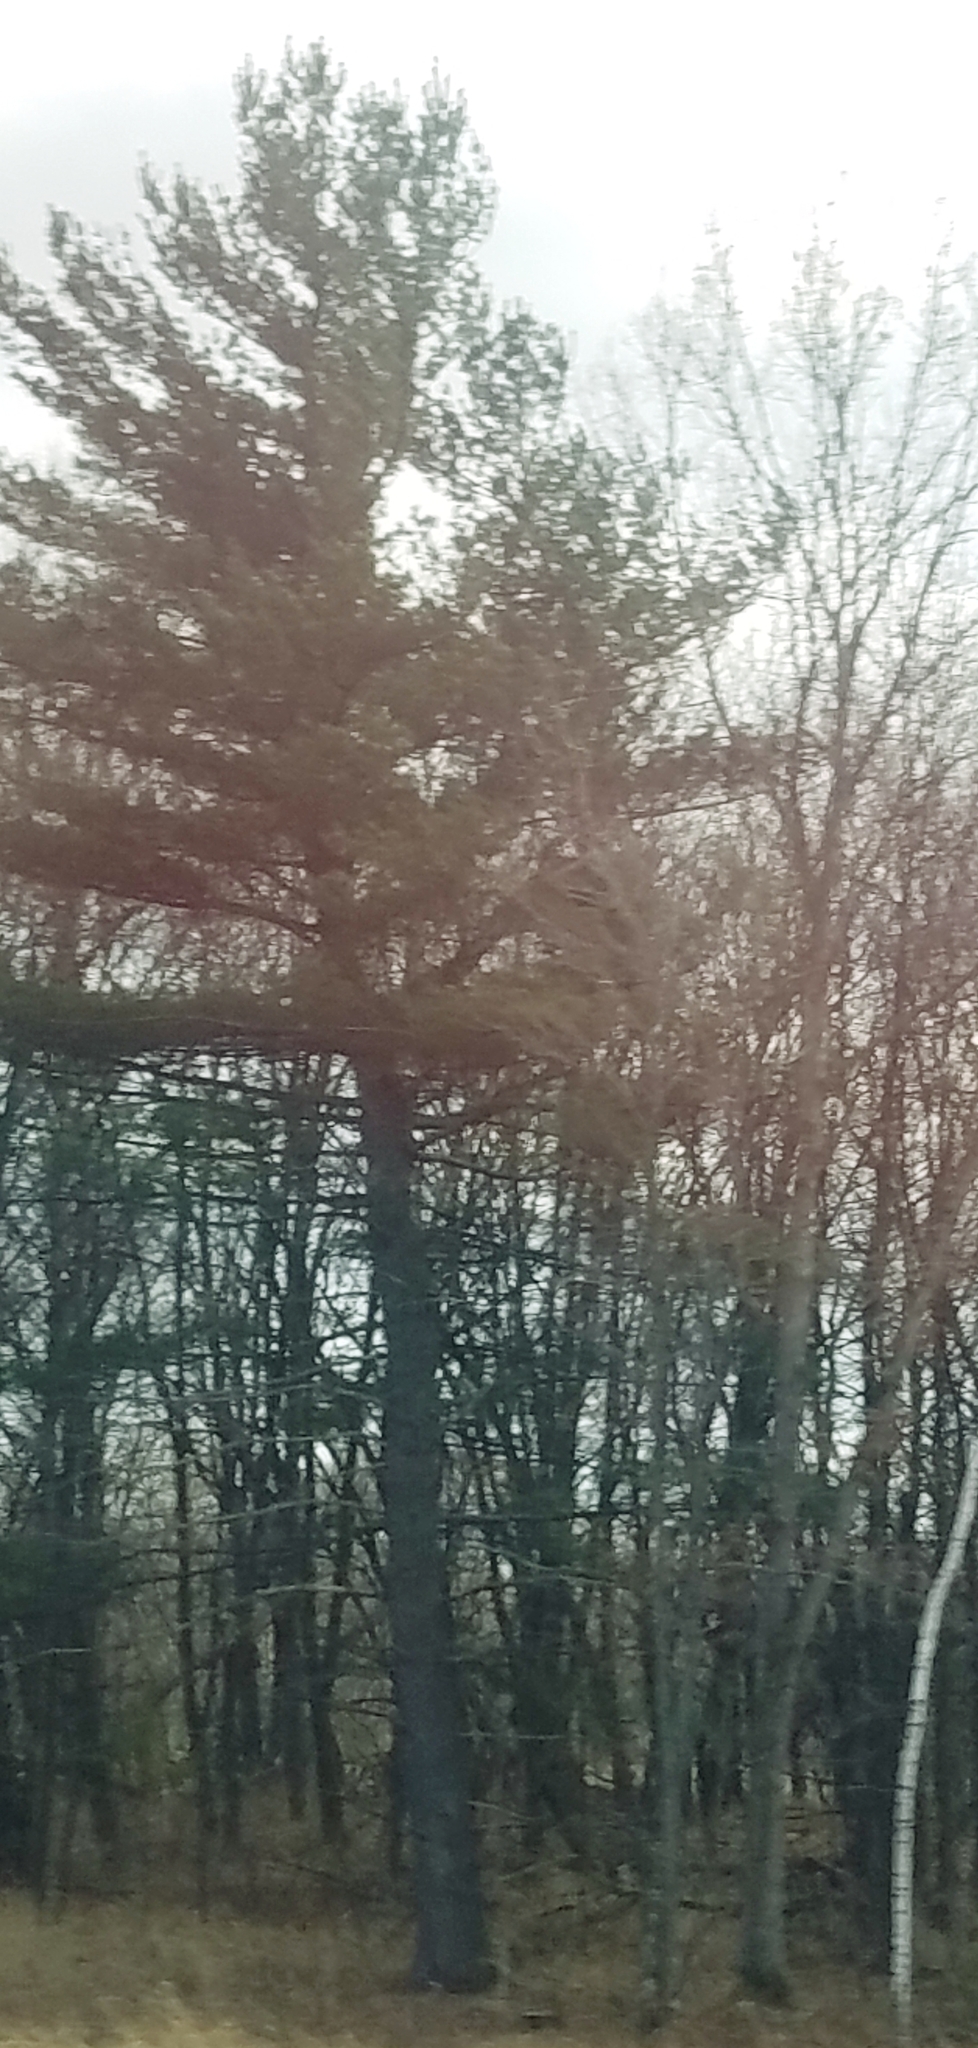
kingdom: Plantae
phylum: Tracheophyta
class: Pinopsida
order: Pinales
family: Pinaceae
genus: Pinus
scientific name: Pinus strobus
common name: Weymouth pine
